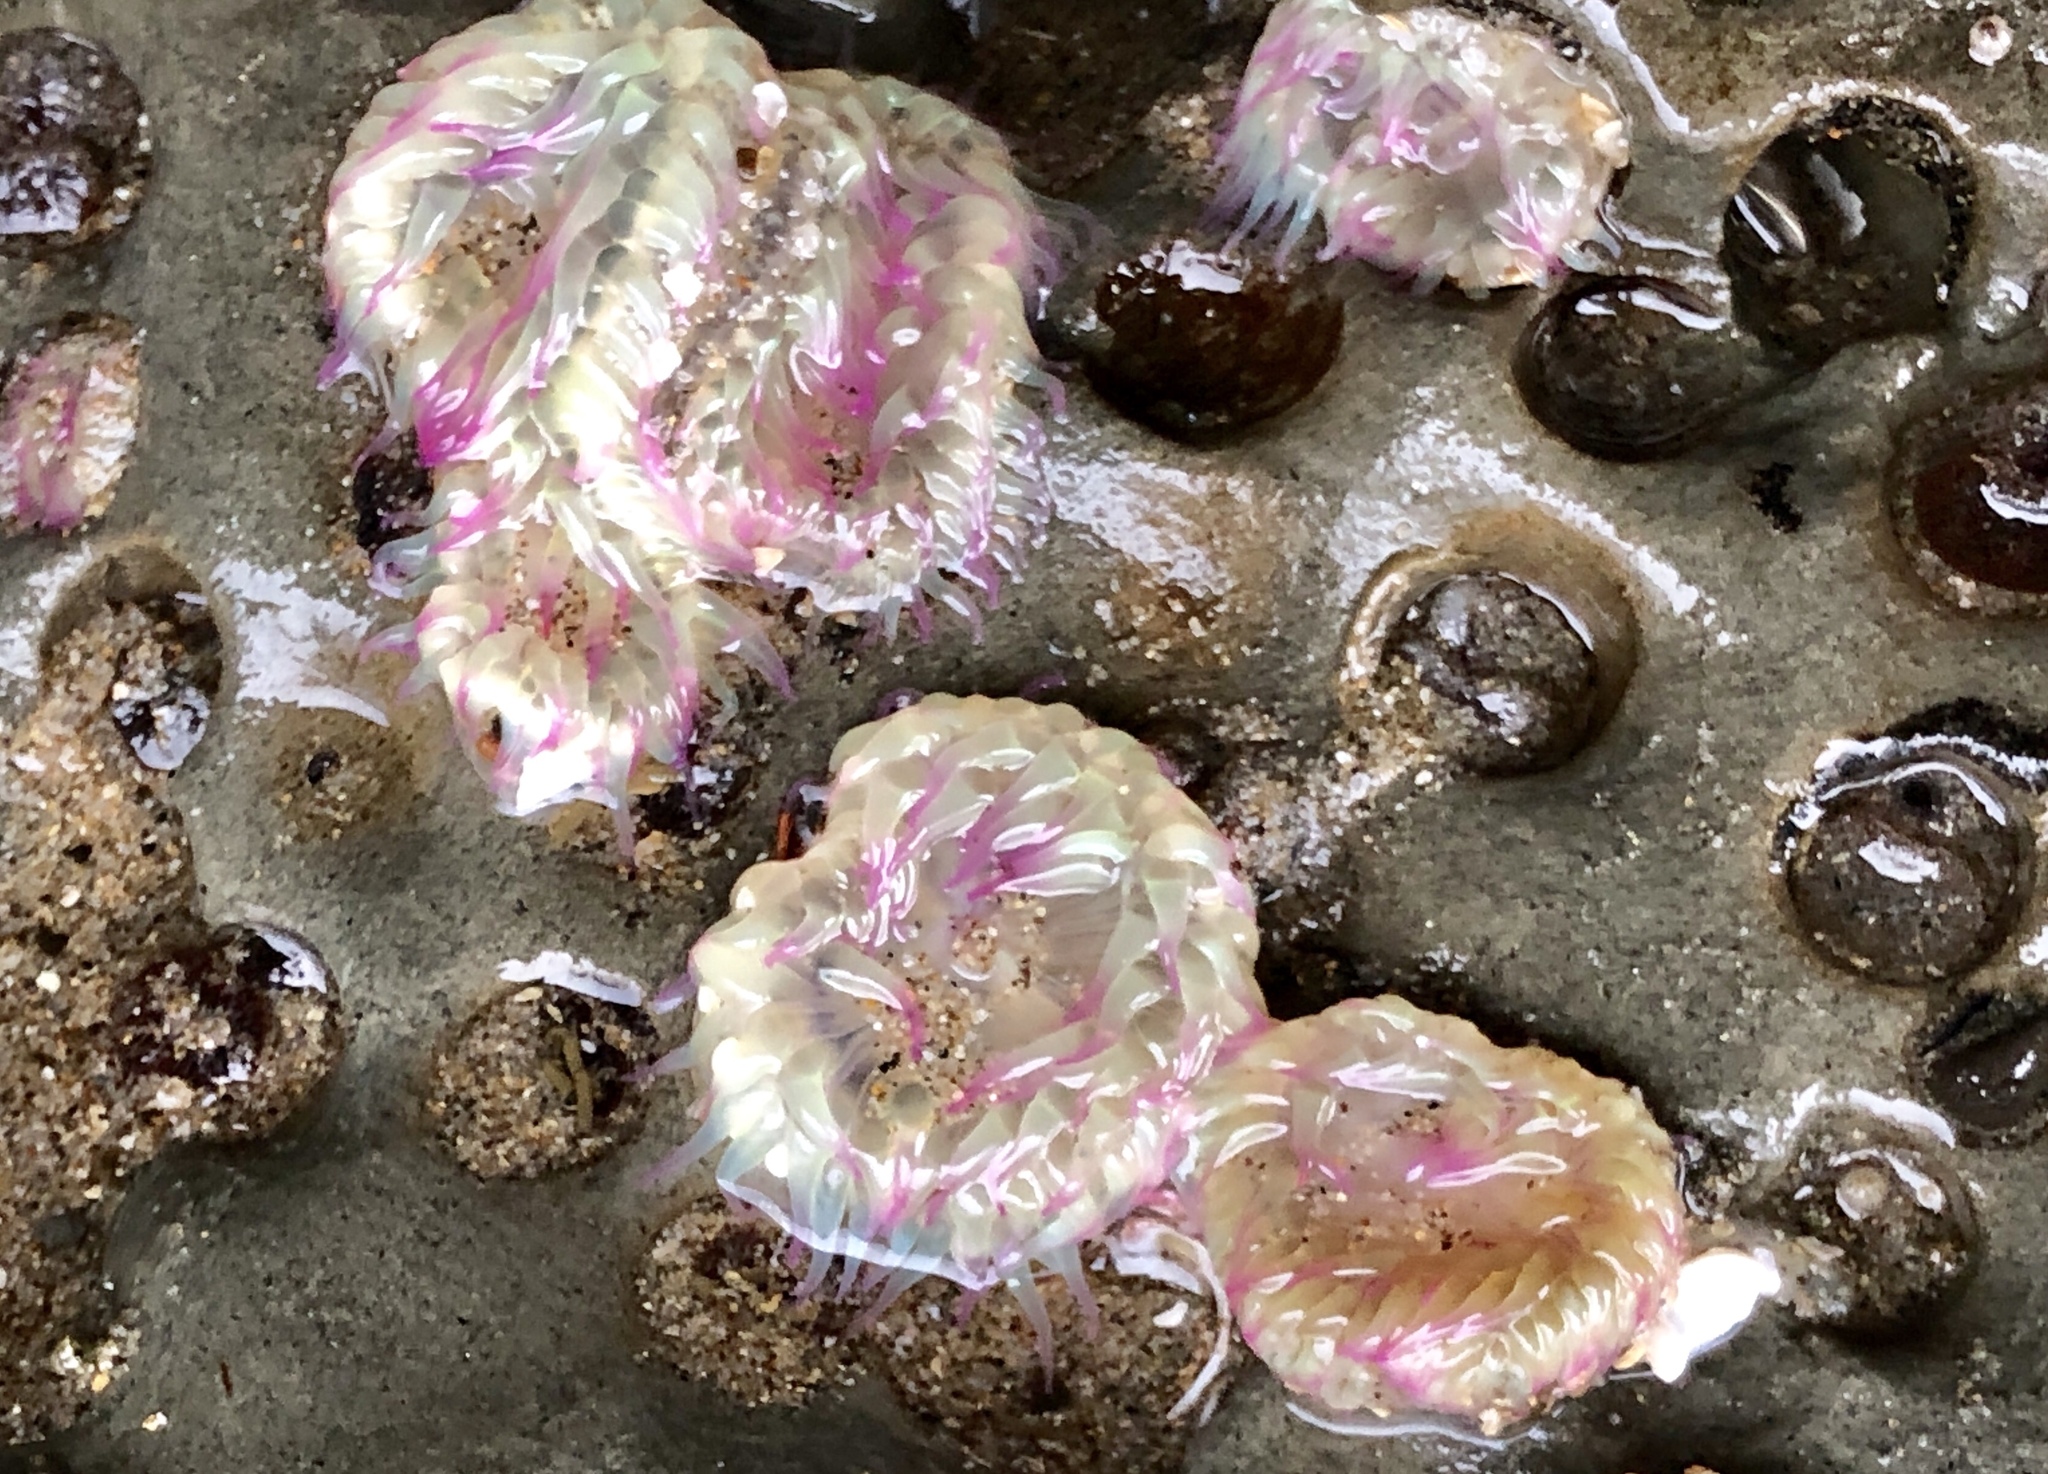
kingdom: Animalia
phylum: Cnidaria
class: Anthozoa
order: Actiniaria
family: Actiniidae
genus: Anthopleura
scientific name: Anthopleura elegantissima
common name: Clonal anemone
